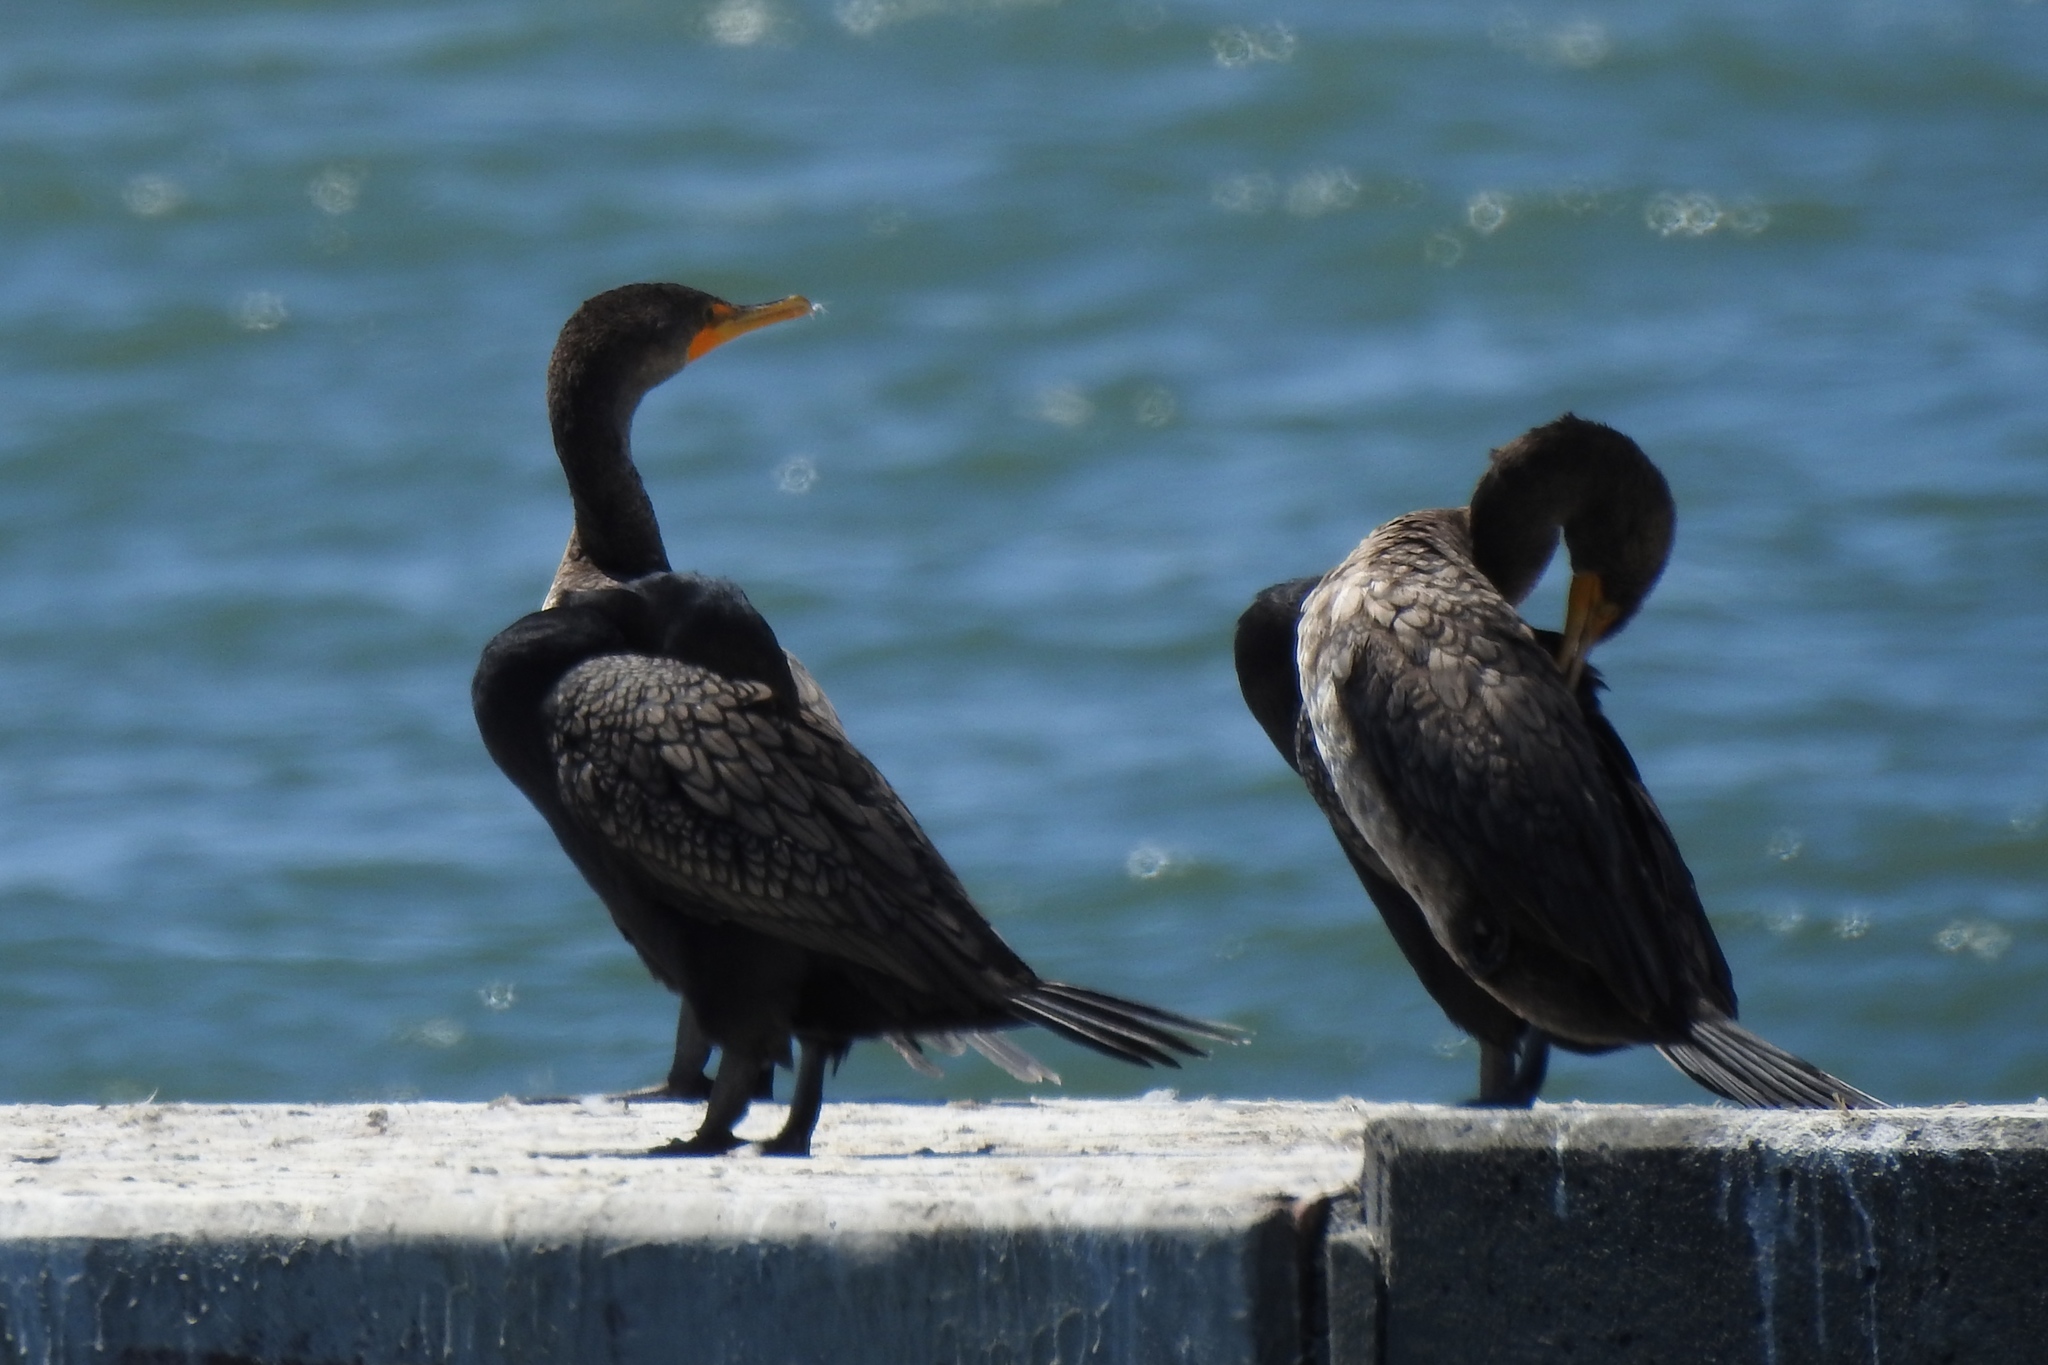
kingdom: Animalia
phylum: Chordata
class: Aves
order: Suliformes
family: Phalacrocoracidae
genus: Phalacrocorax
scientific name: Phalacrocorax auritus
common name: Double-crested cormorant
